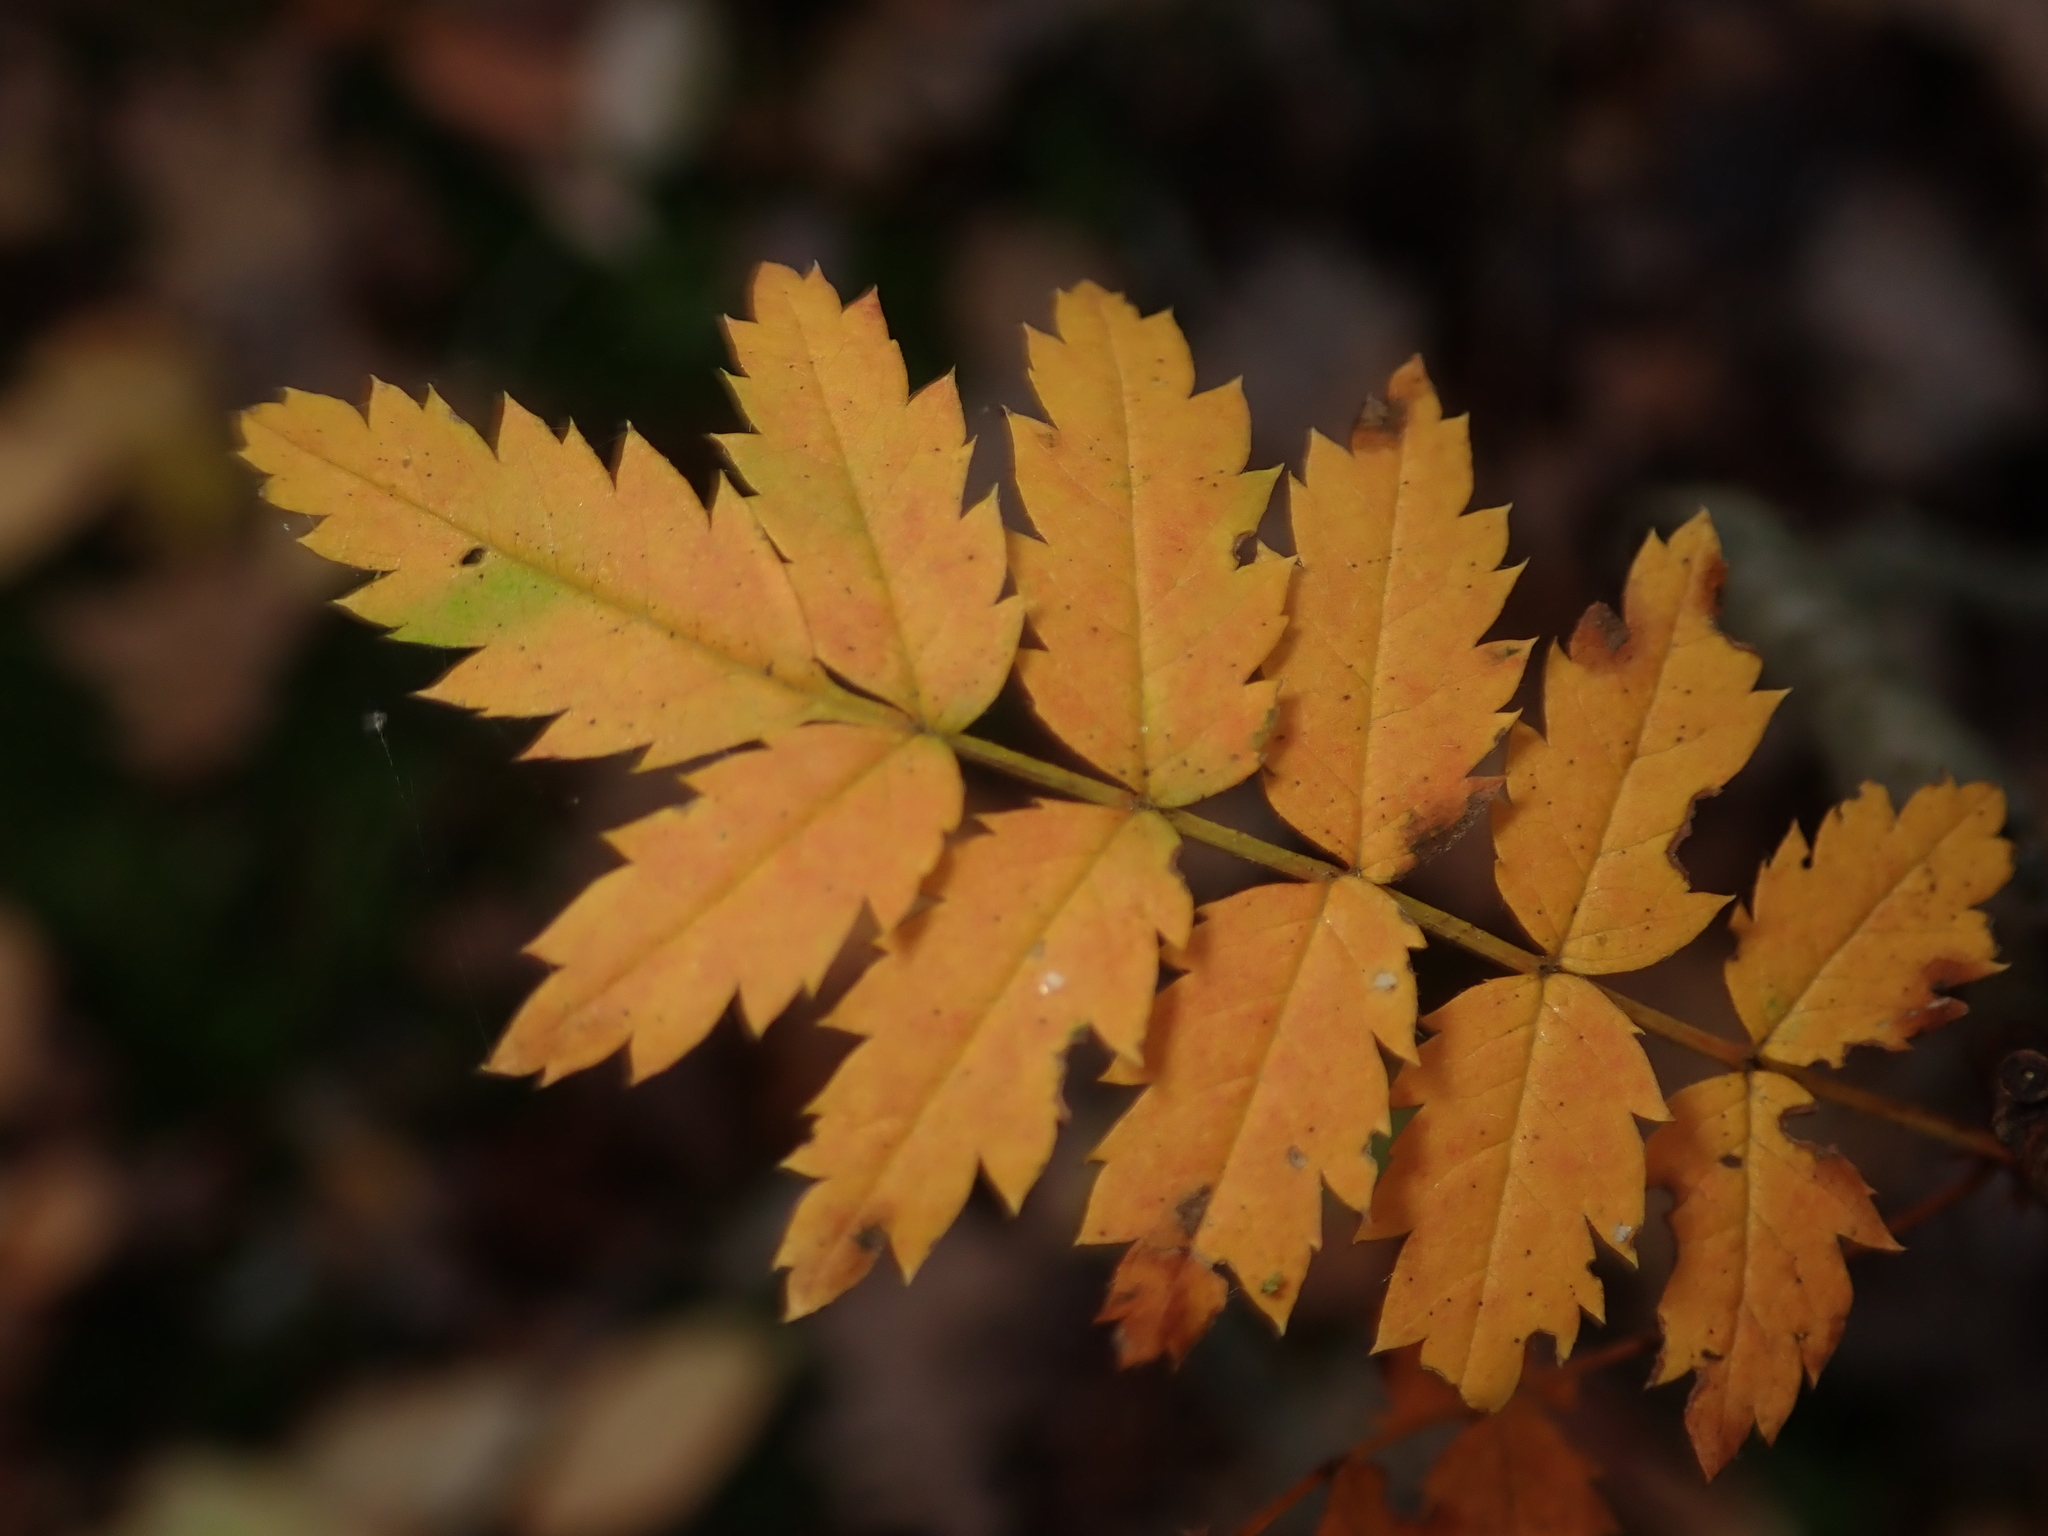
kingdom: Plantae
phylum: Tracheophyta
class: Magnoliopsida
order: Rosales
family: Rosaceae
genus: Sorbus
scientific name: Sorbus aucuparia
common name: Rowan
